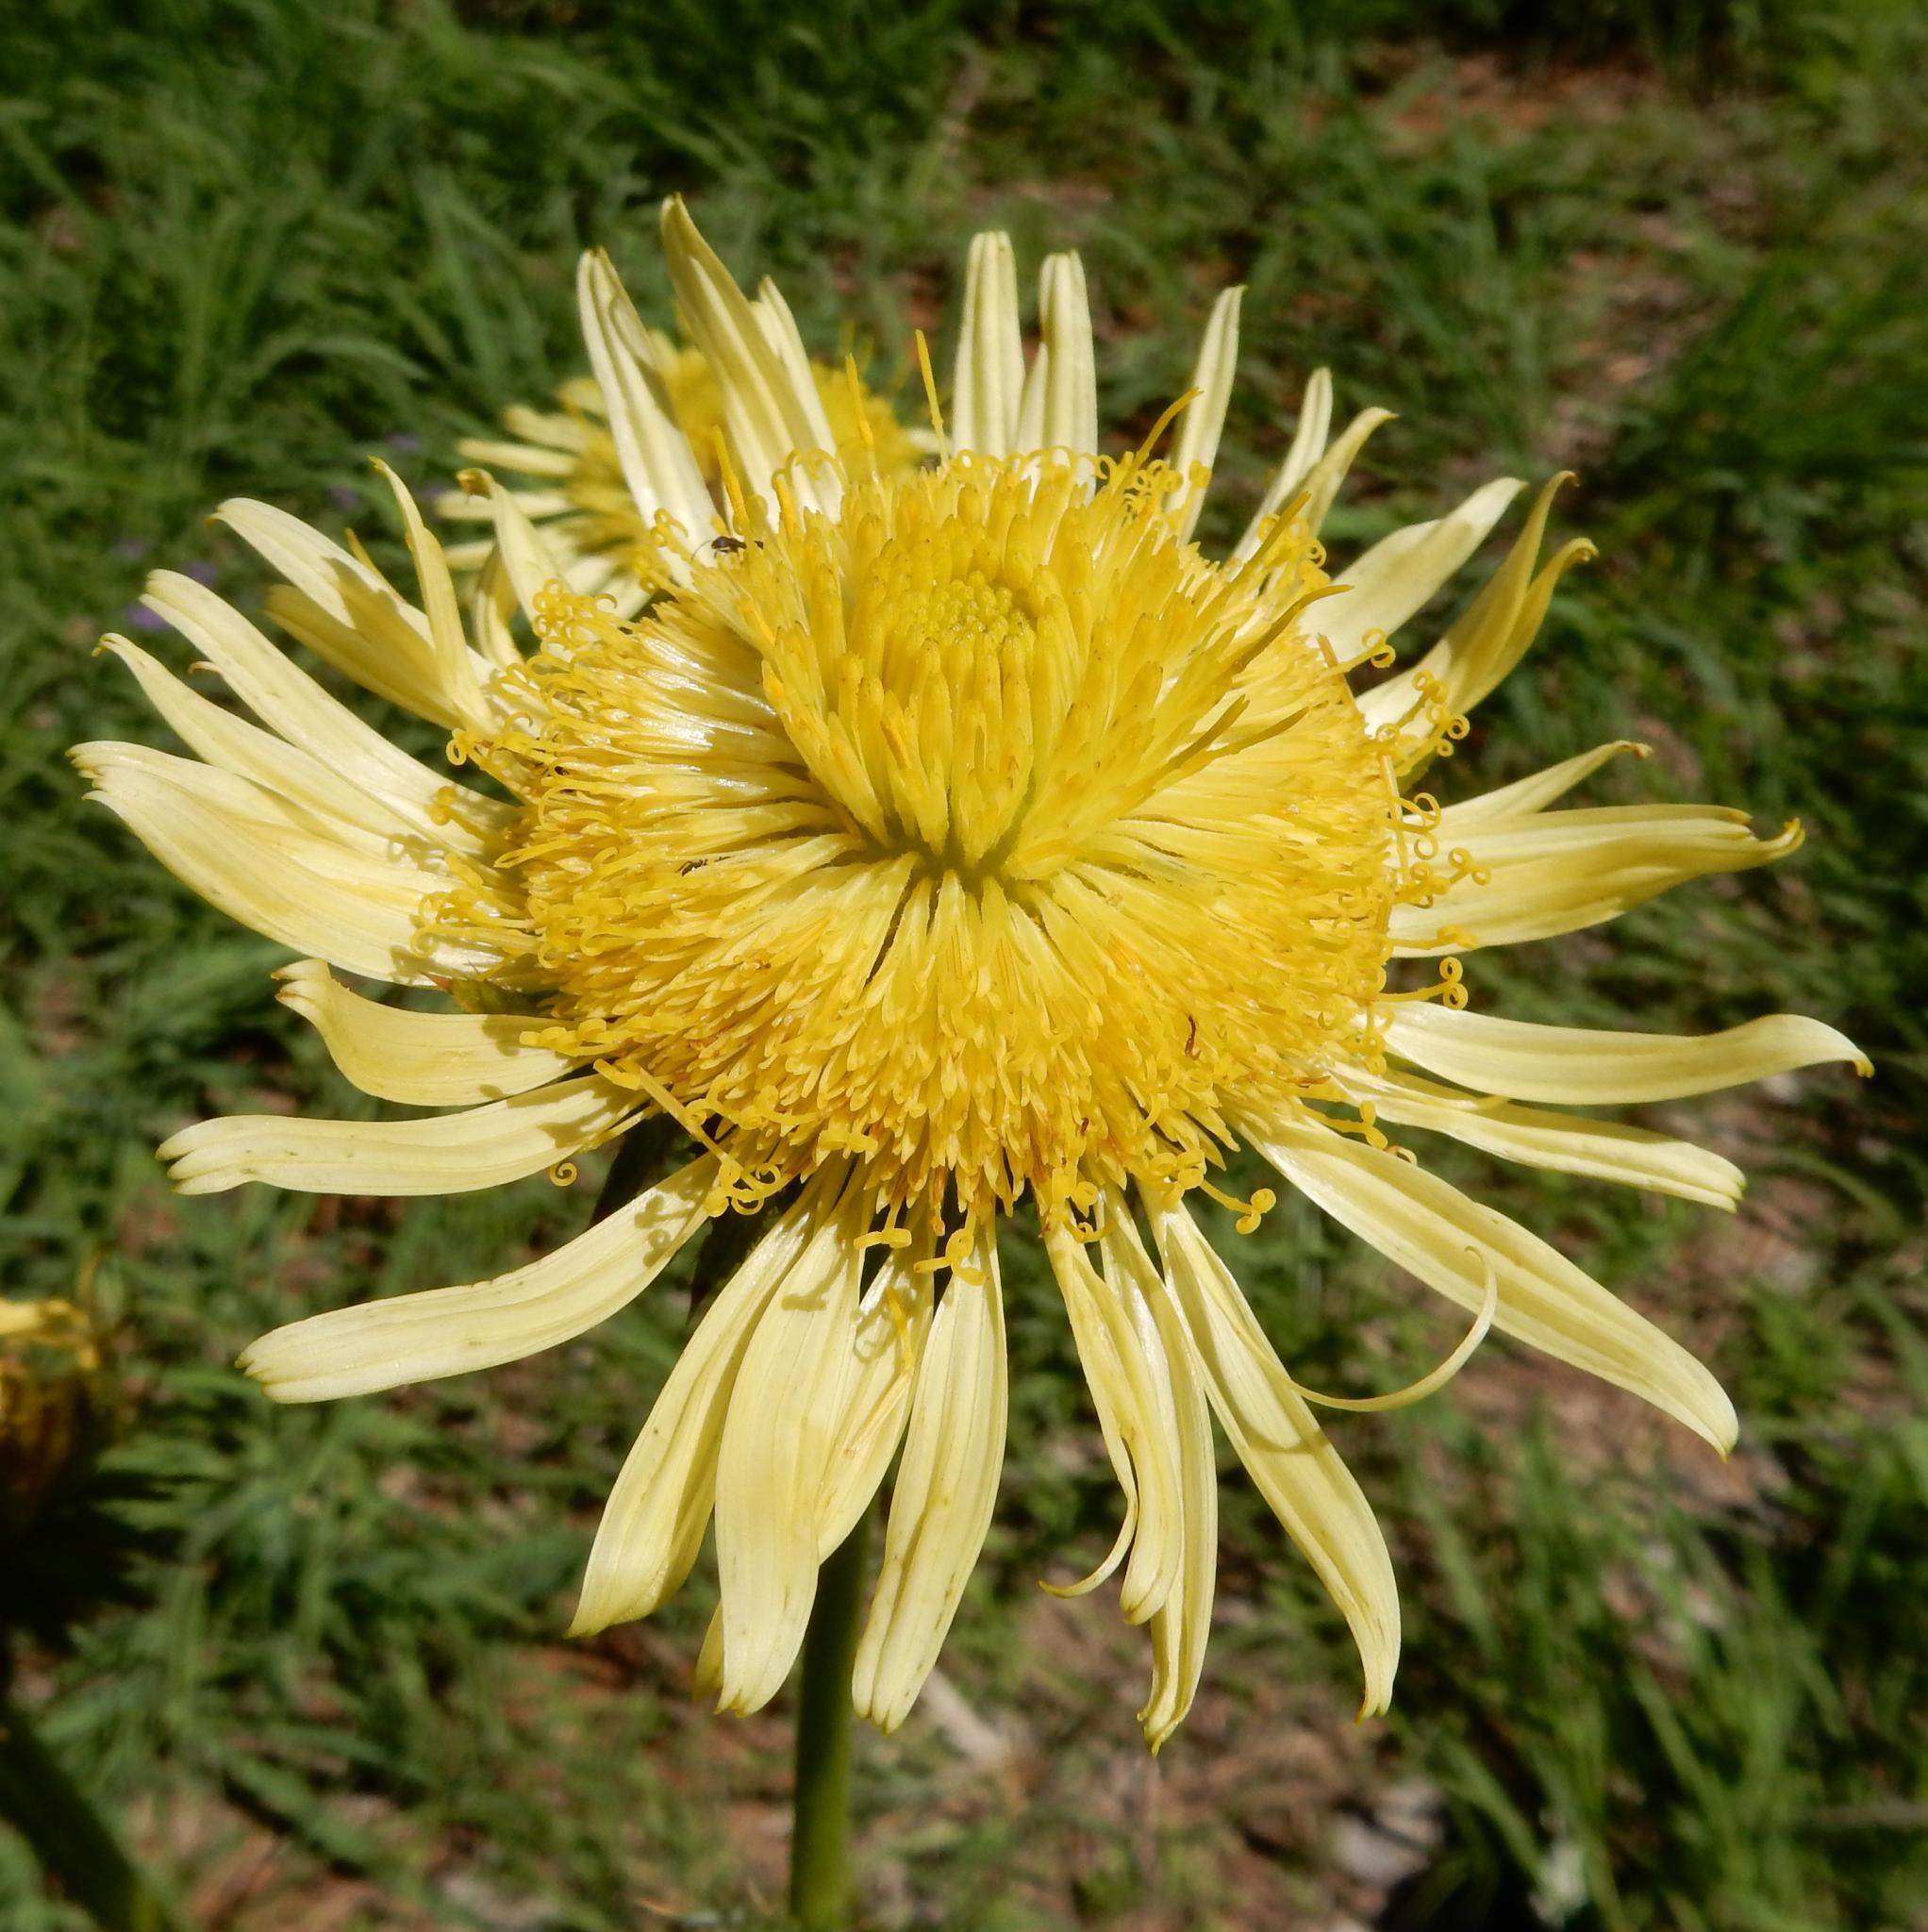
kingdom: Plantae
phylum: Tracheophyta
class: Magnoliopsida
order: Asterales
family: Asteraceae
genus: Berkheya
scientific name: Berkheya radula
